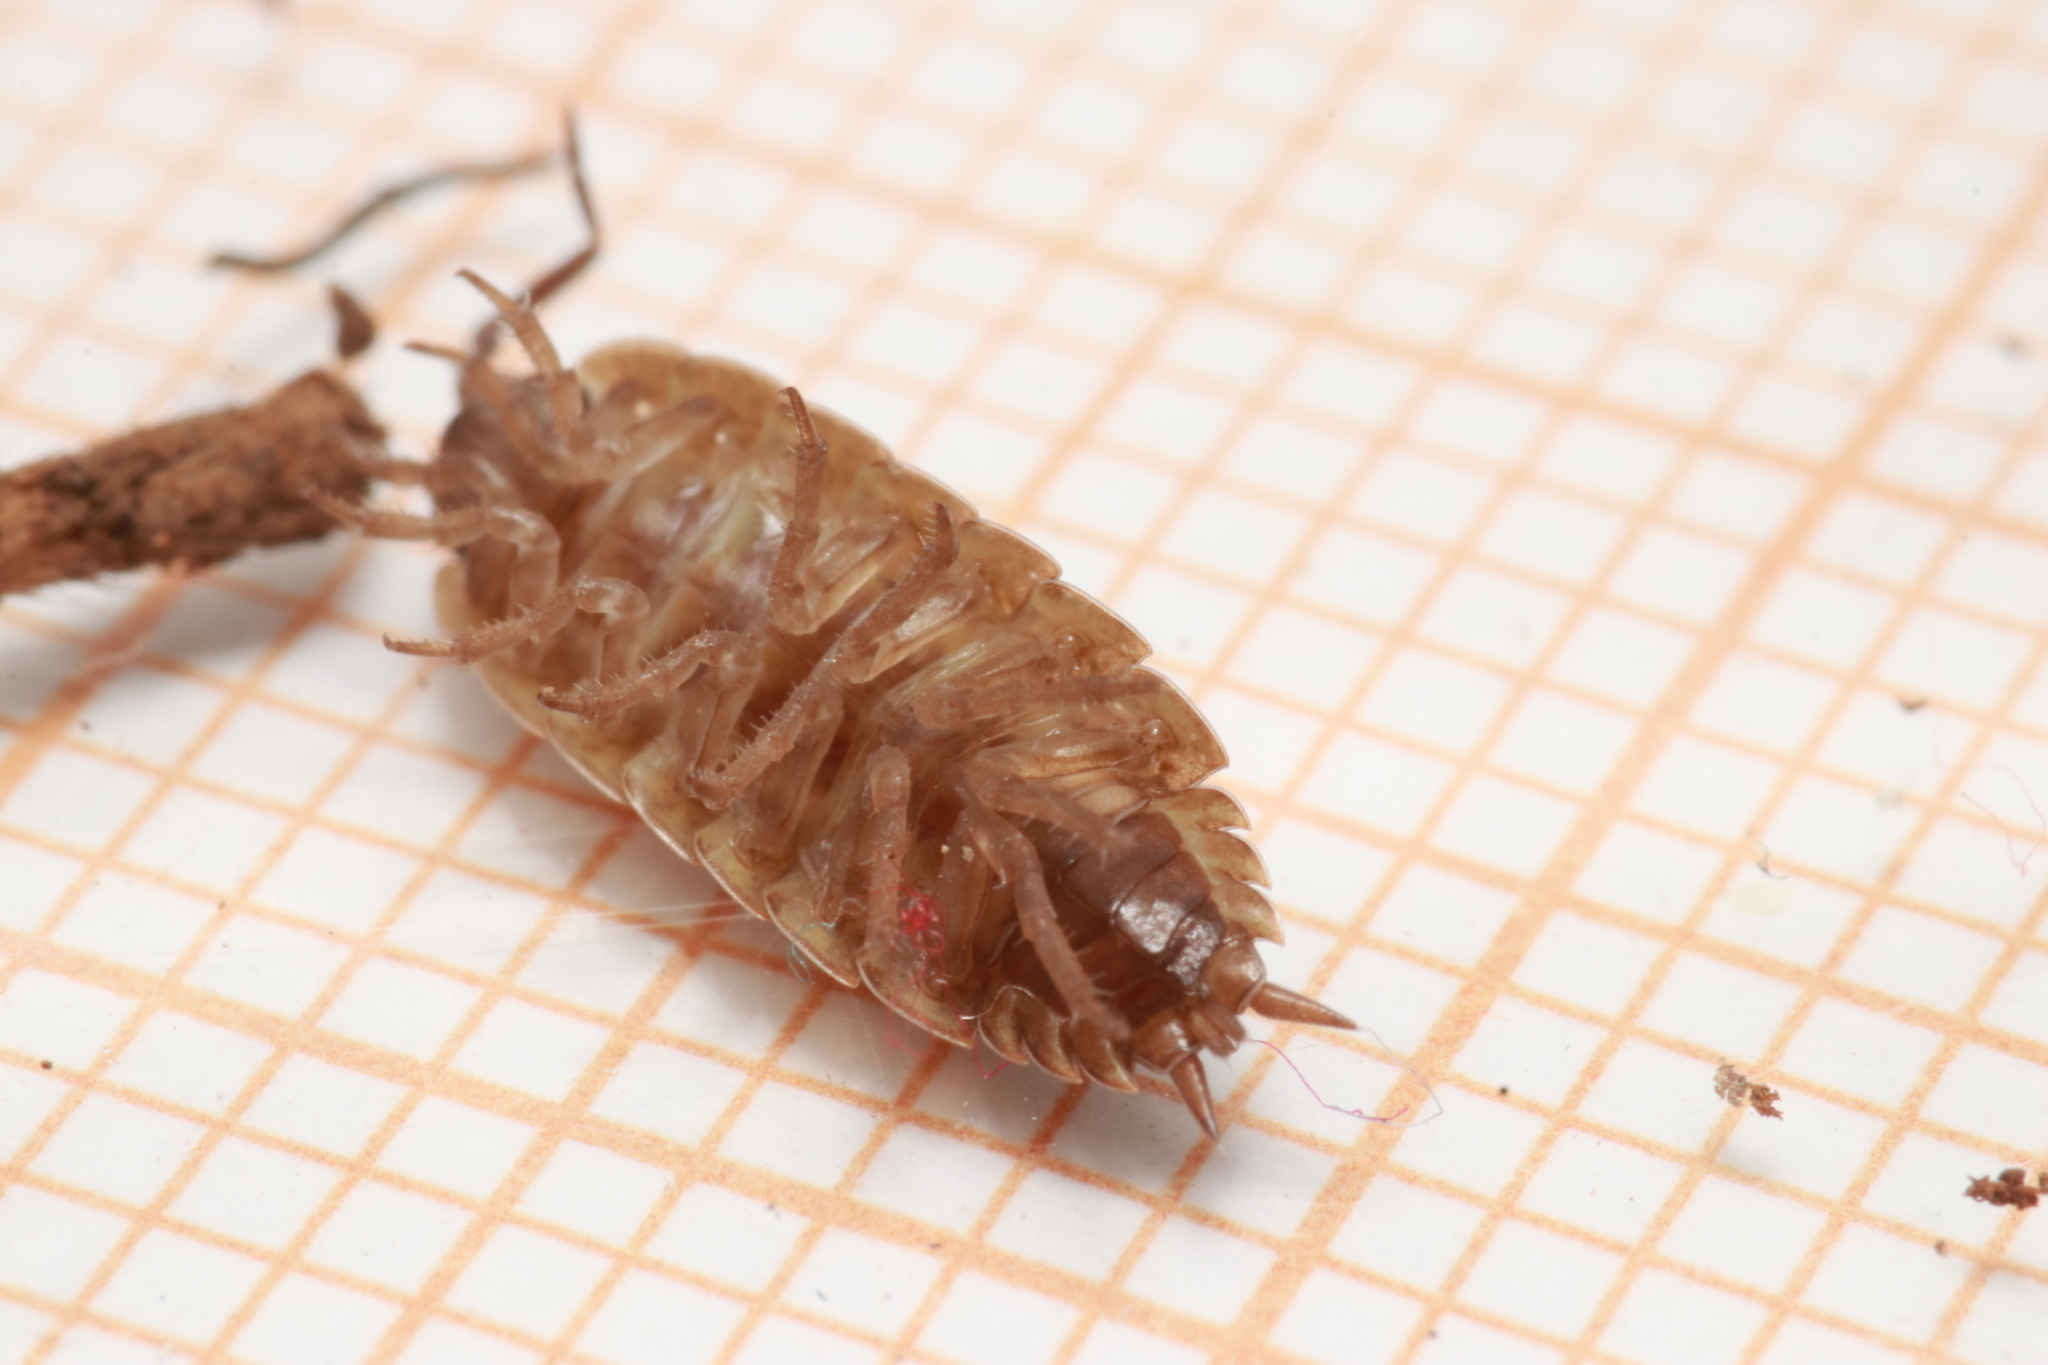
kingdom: Animalia
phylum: Arthropoda
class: Malacostraca
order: Isopoda
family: Porcellionidae
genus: Porcellio
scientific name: Porcellio provincialis
